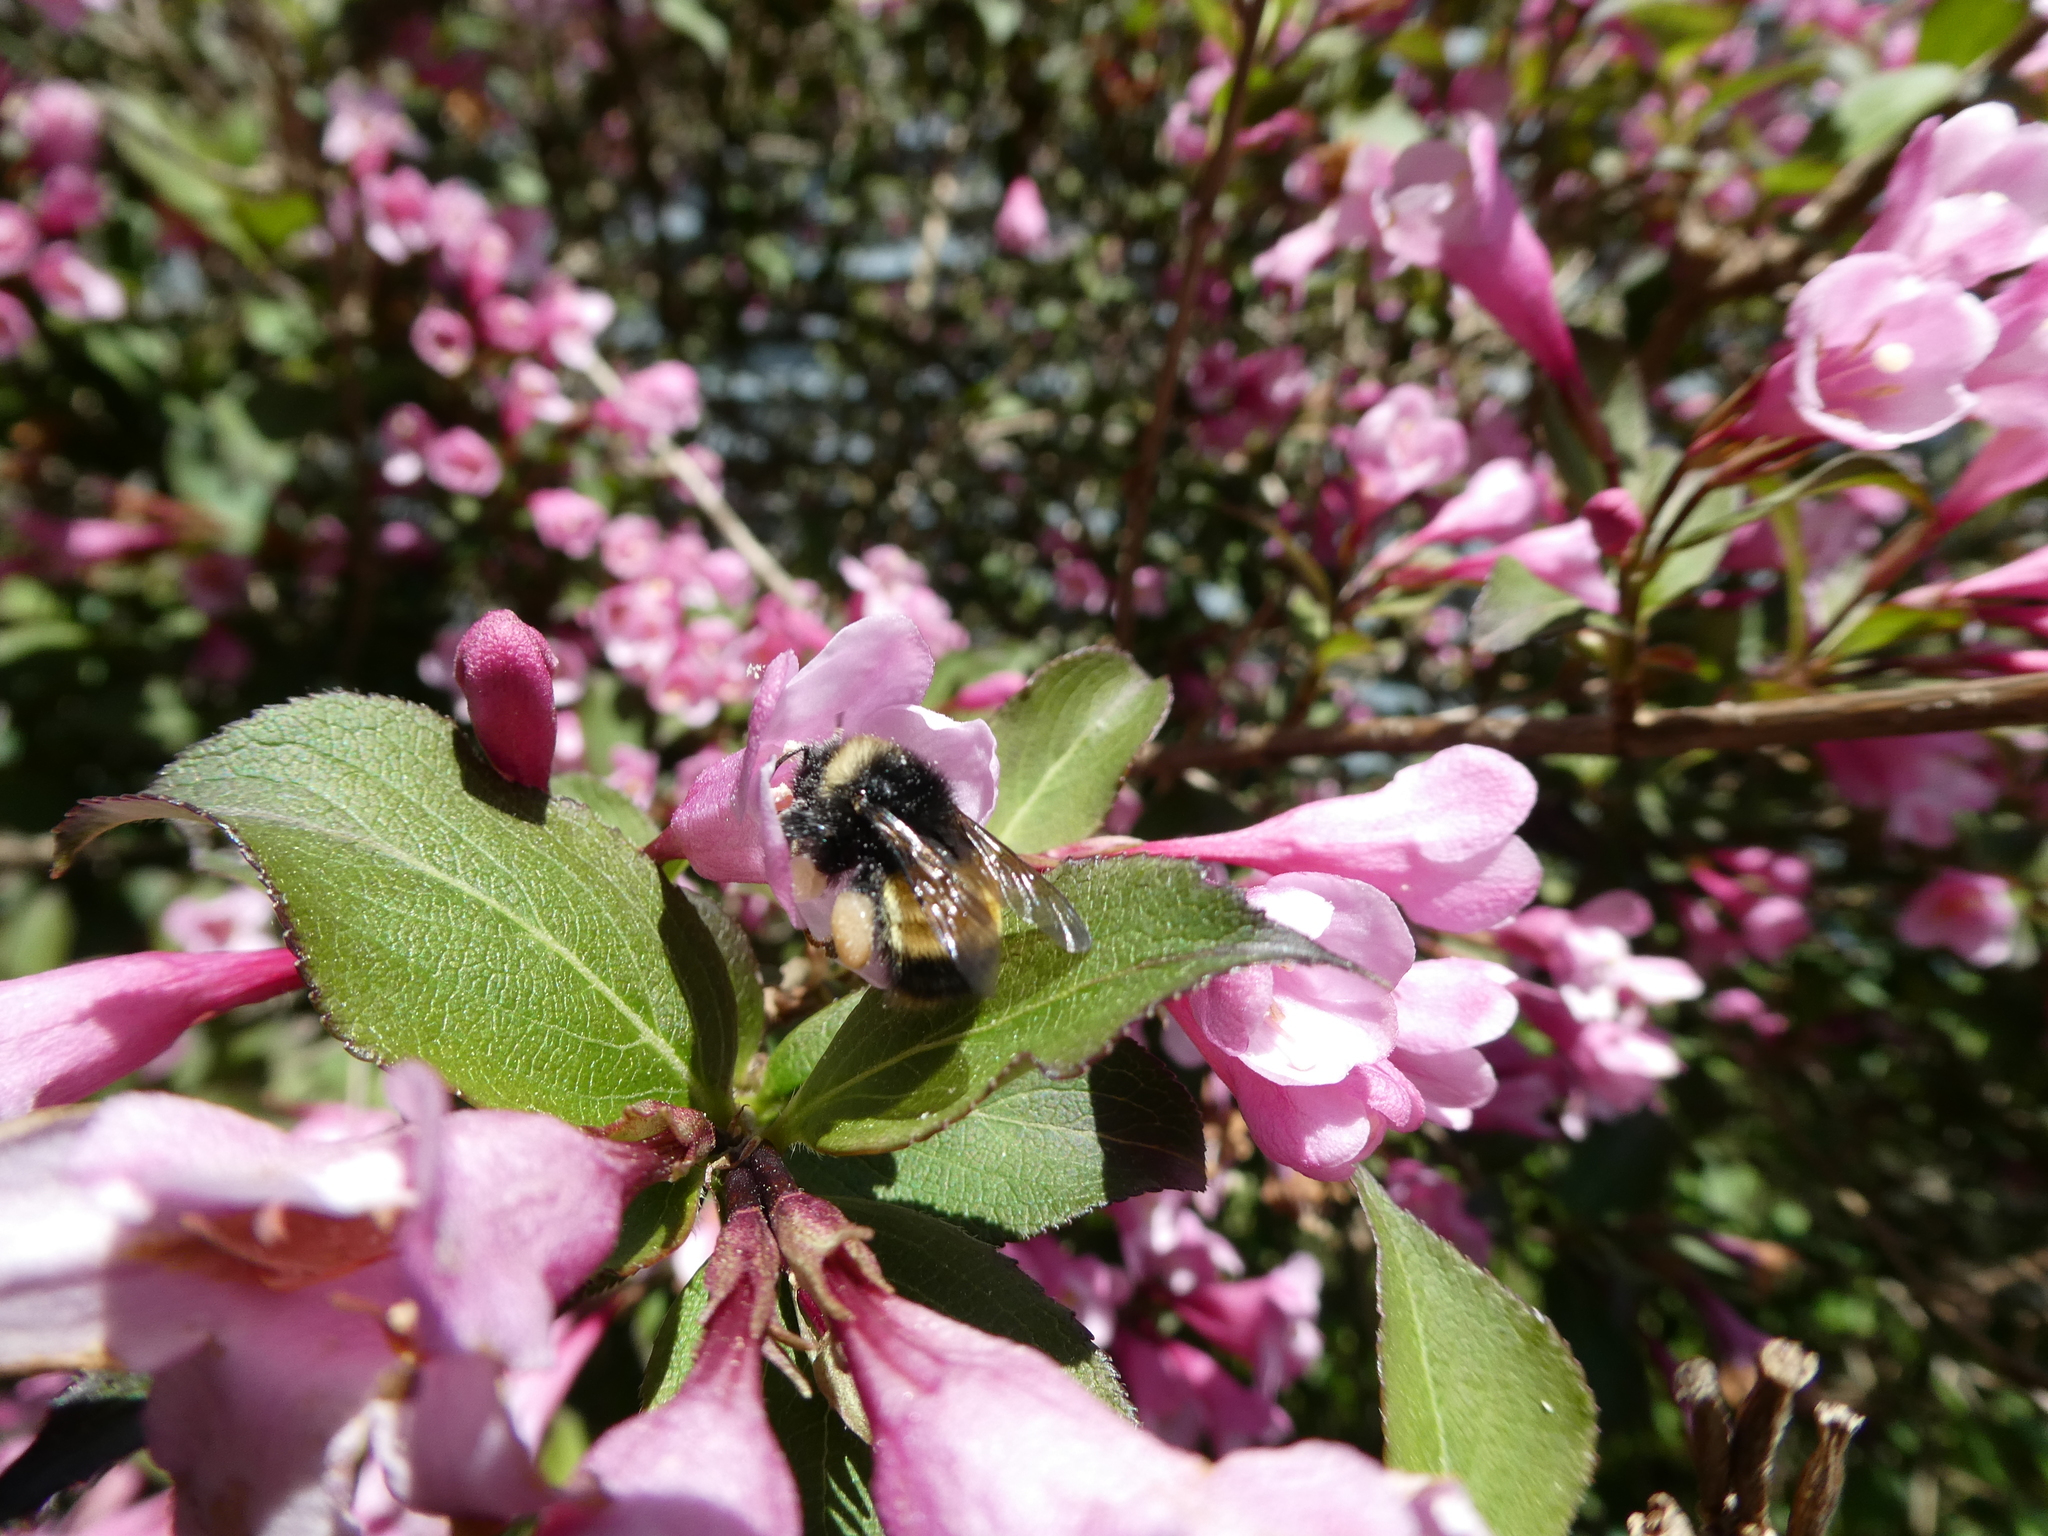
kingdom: Animalia
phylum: Arthropoda
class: Insecta
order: Hymenoptera
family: Apidae
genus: Bombus
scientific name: Bombus terricola
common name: Yellow-banded bumble bee
